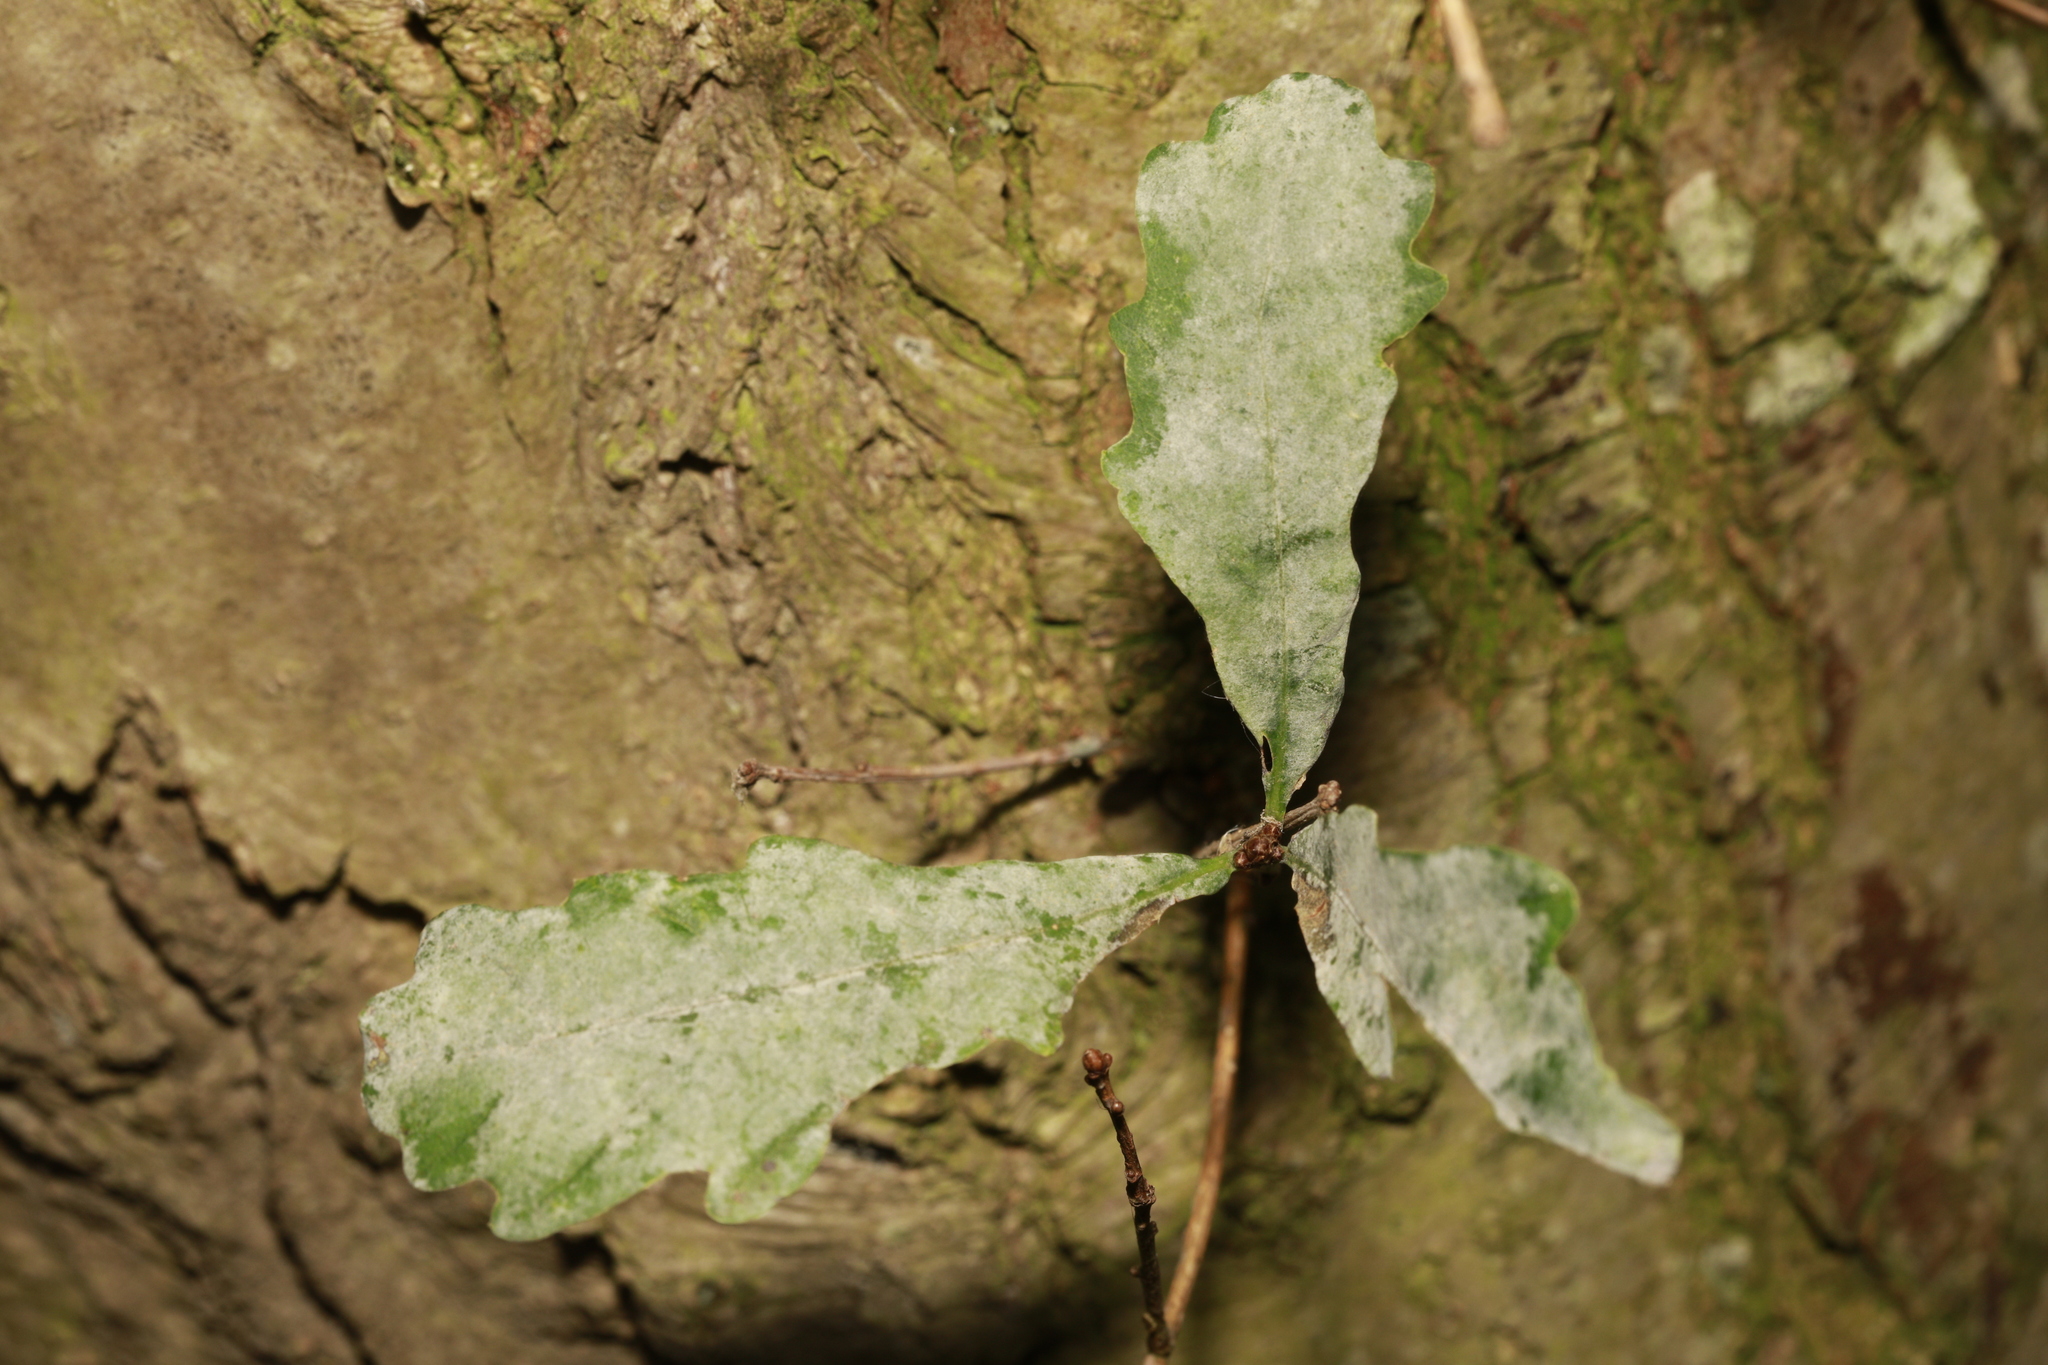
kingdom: Fungi
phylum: Ascomycota
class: Leotiomycetes
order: Helotiales
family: Erysiphaceae
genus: Erysiphe
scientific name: Erysiphe alphitoides
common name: Oak mildew
